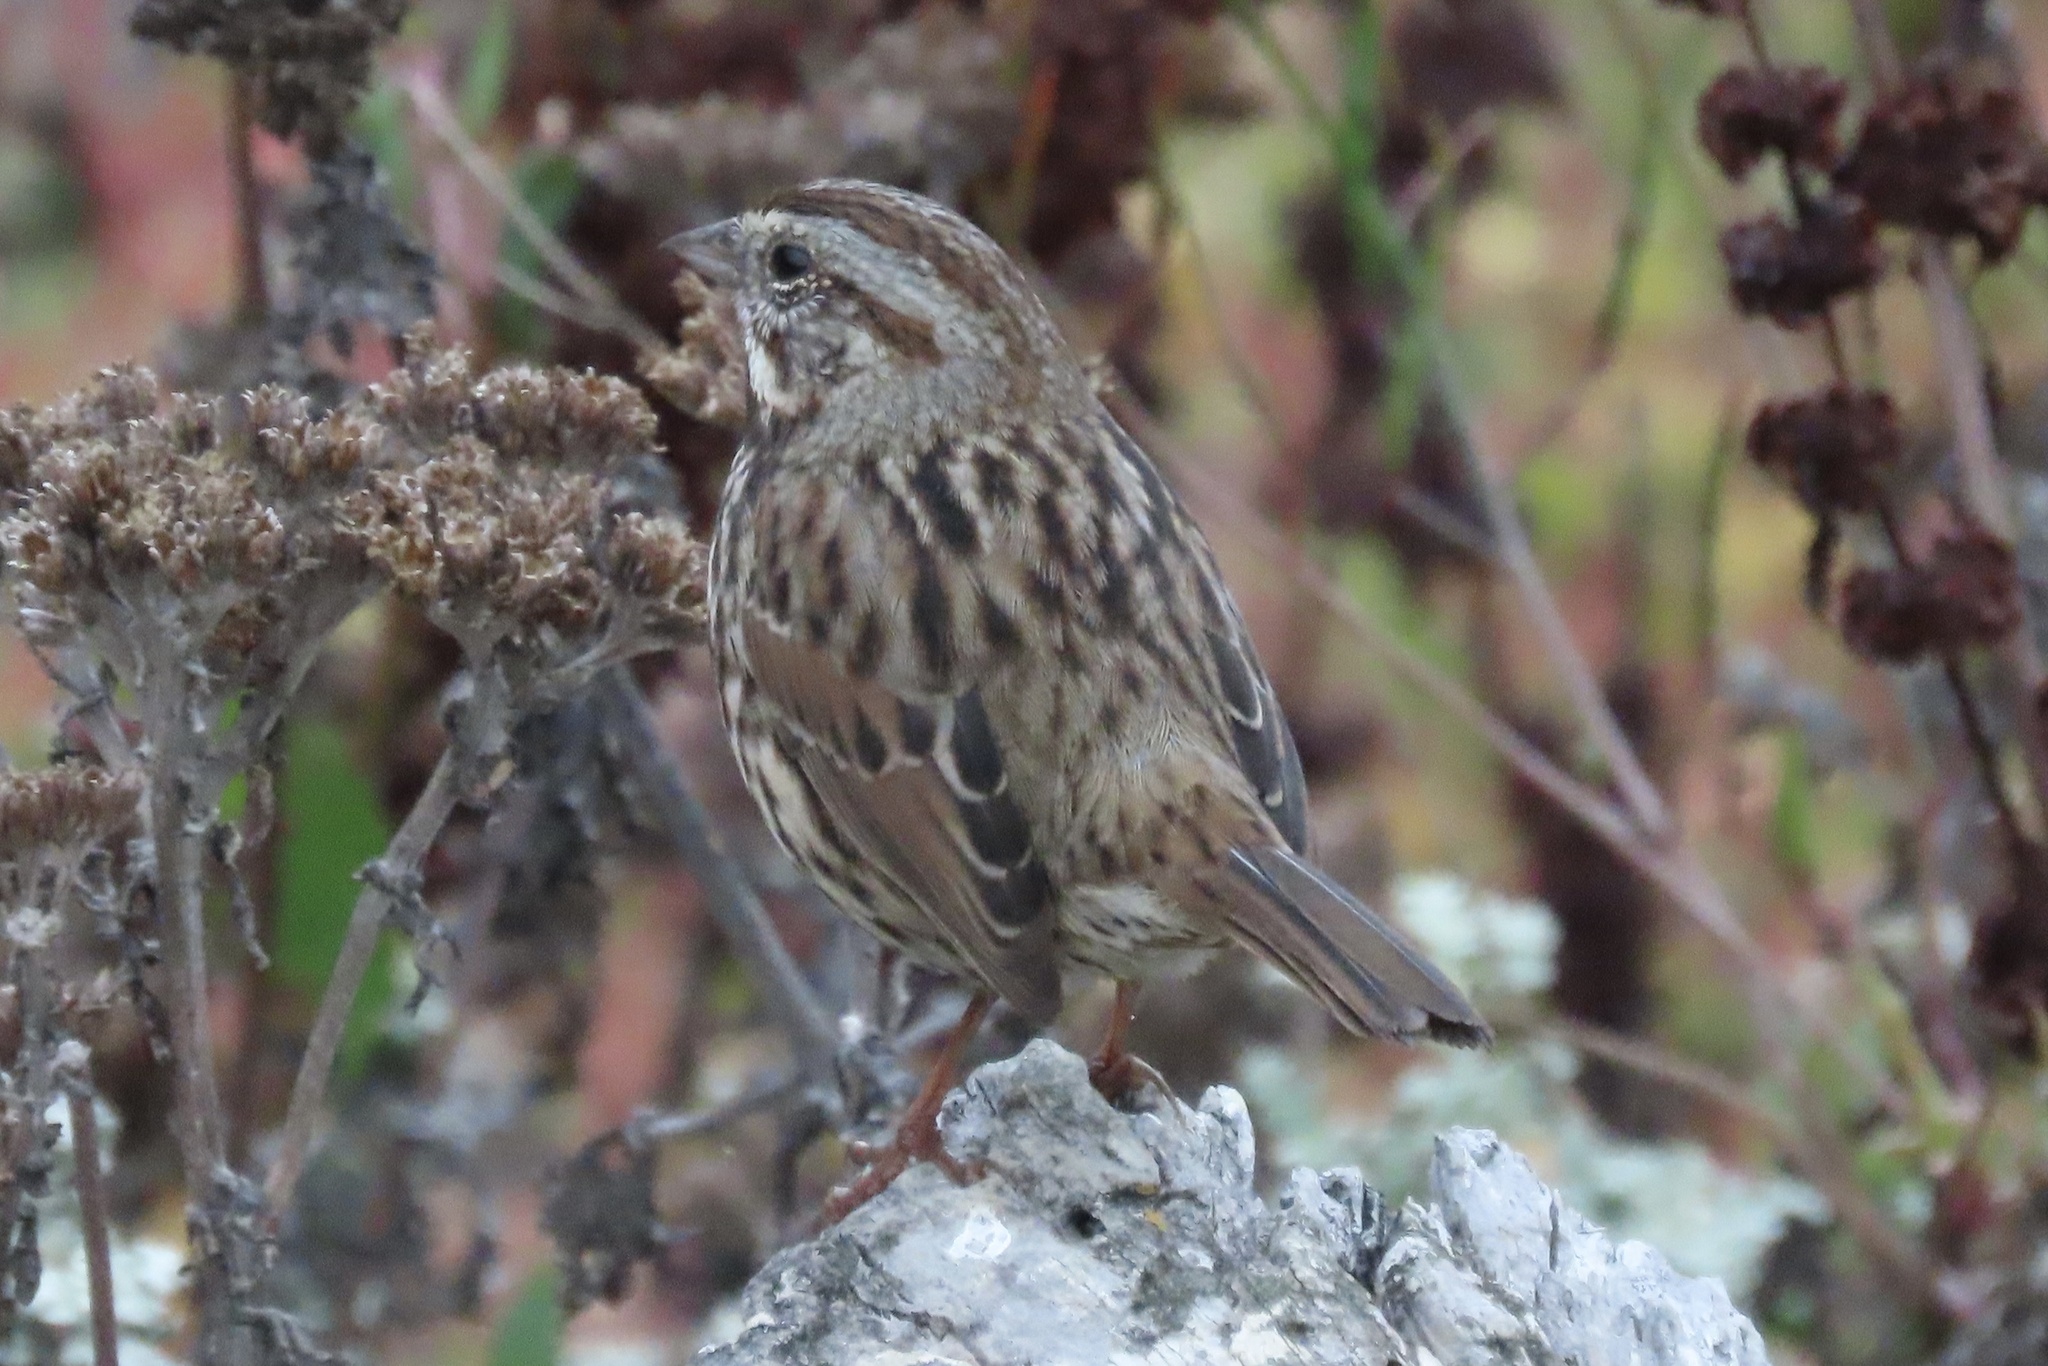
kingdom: Animalia
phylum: Chordata
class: Aves
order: Passeriformes
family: Passerellidae
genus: Melospiza
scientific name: Melospiza melodia
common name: Song sparrow
